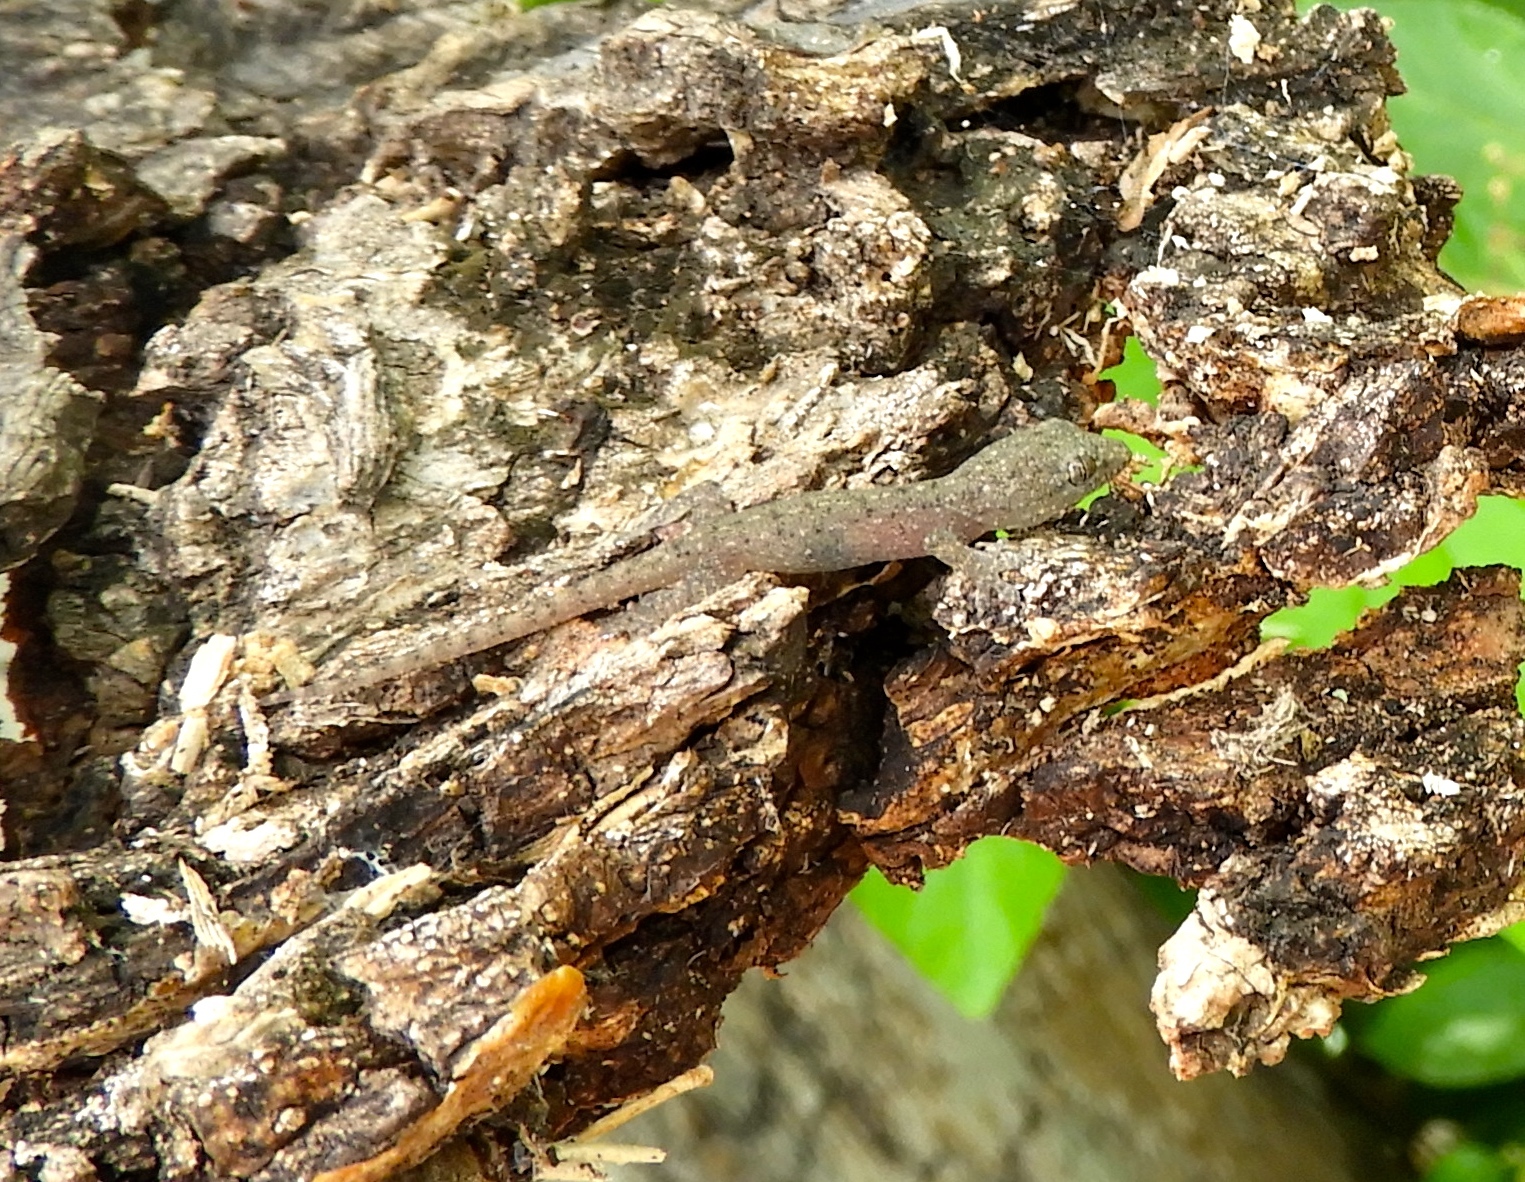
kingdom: Animalia
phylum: Chordata
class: Squamata
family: Gekkonidae
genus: Hemidactylus
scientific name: Hemidactylus frenatus
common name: Common house gecko
